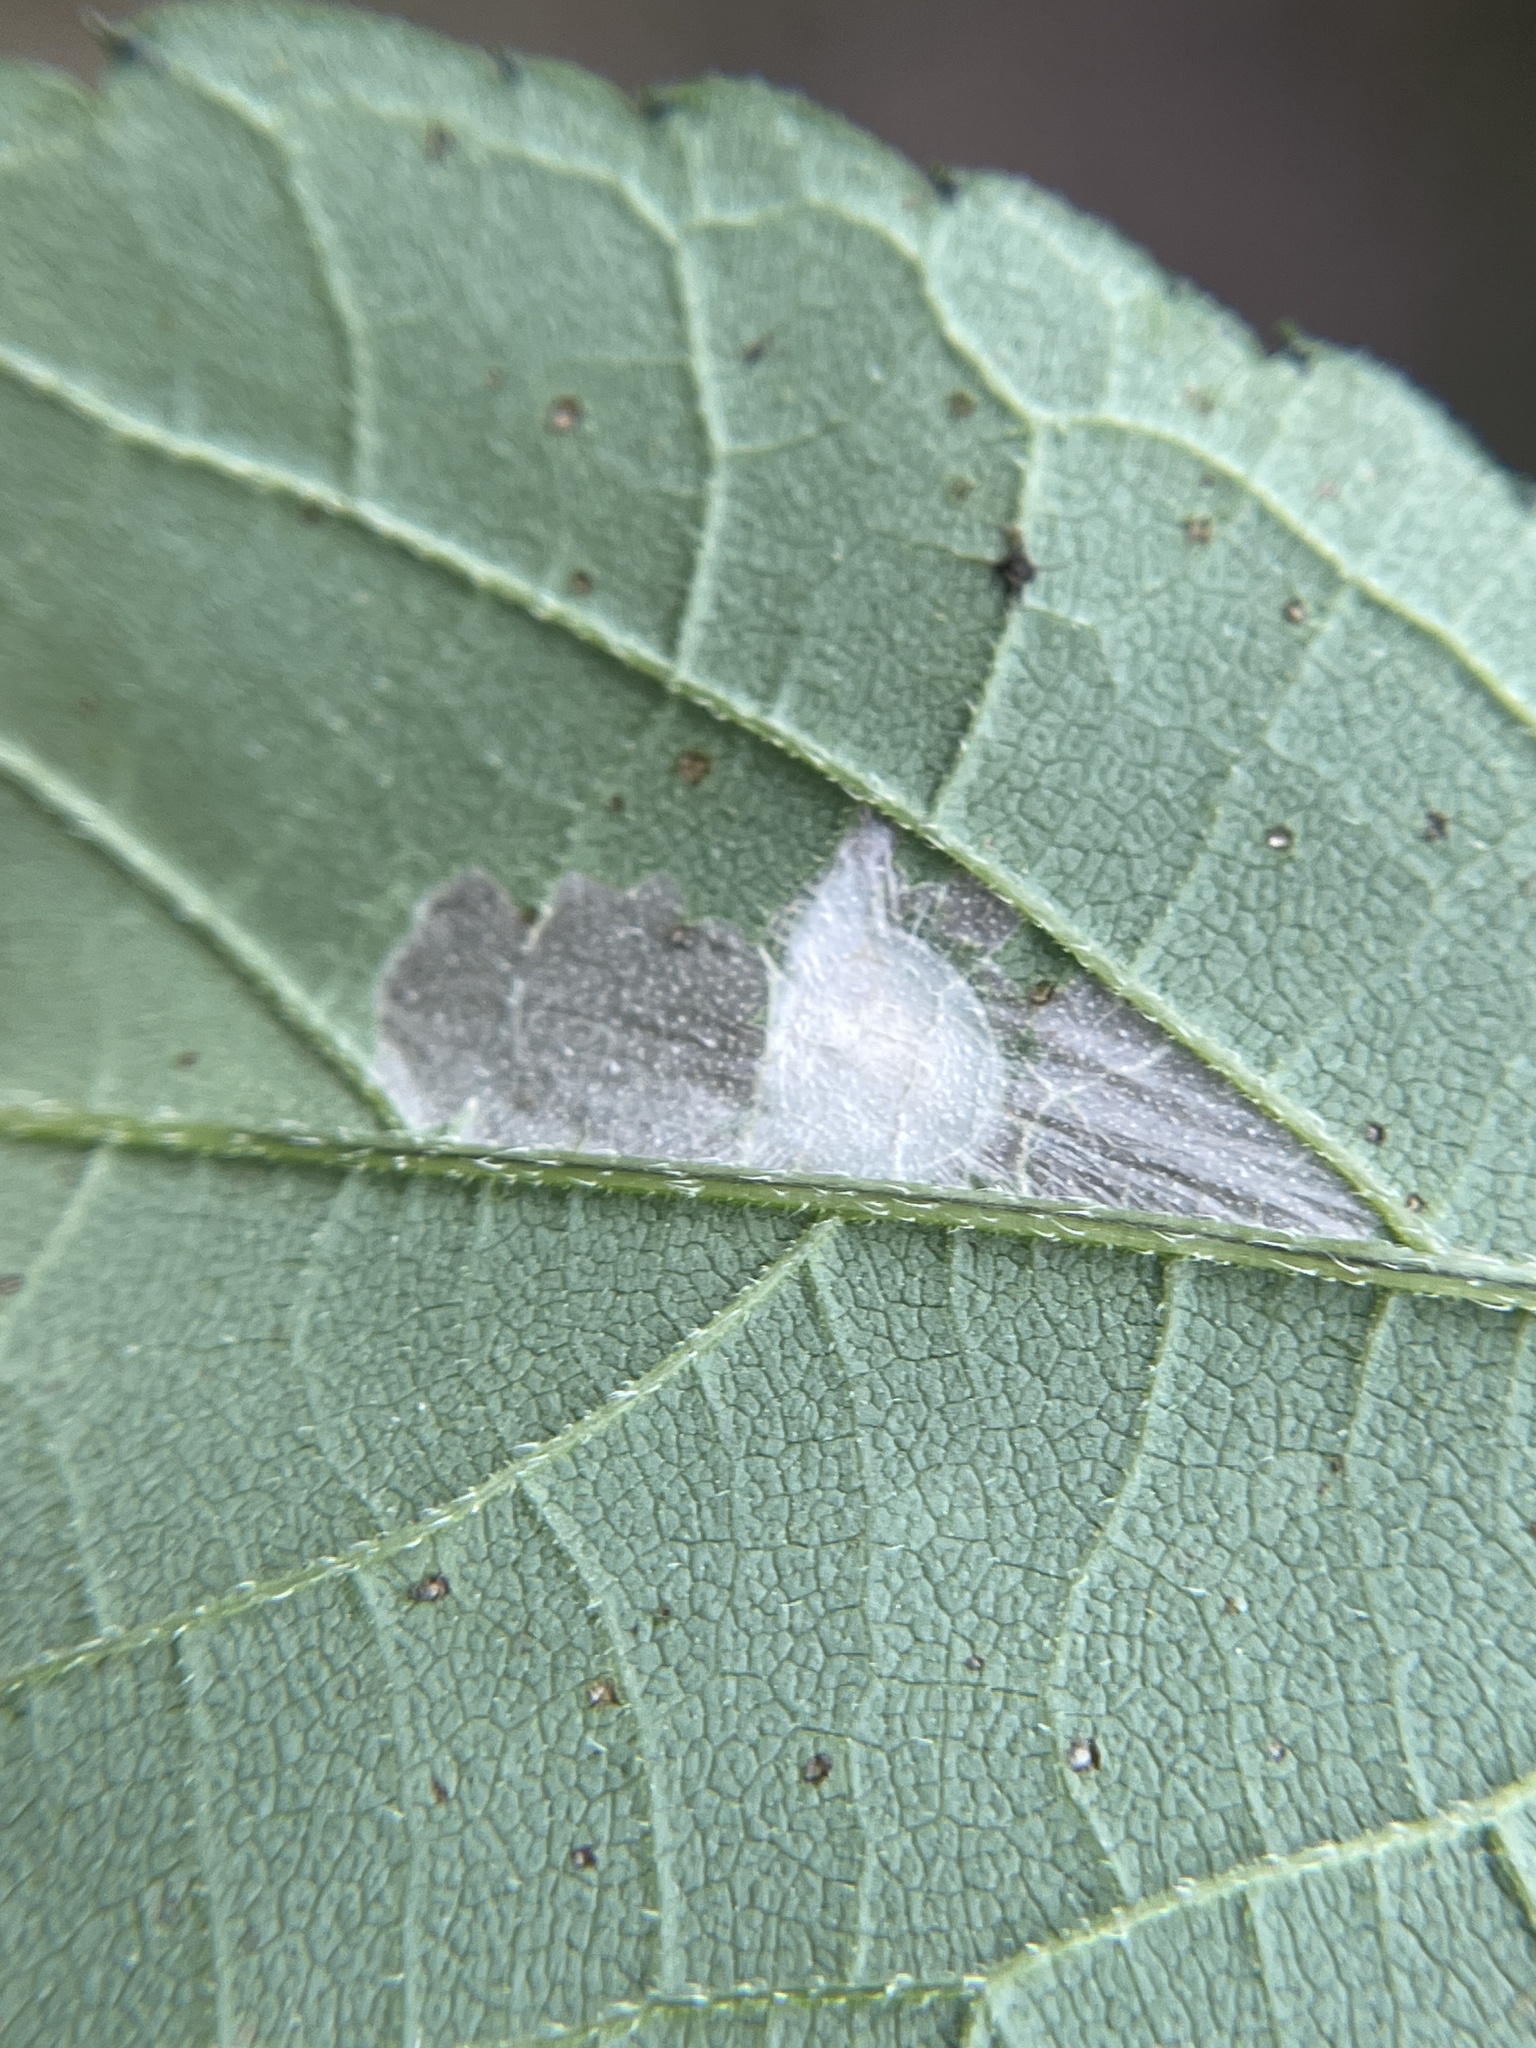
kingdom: Animalia
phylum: Arthropoda
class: Insecta
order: Lepidoptera
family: Tischeriidae
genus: Astrotischeria
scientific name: Astrotischeria ambrosiaeella
